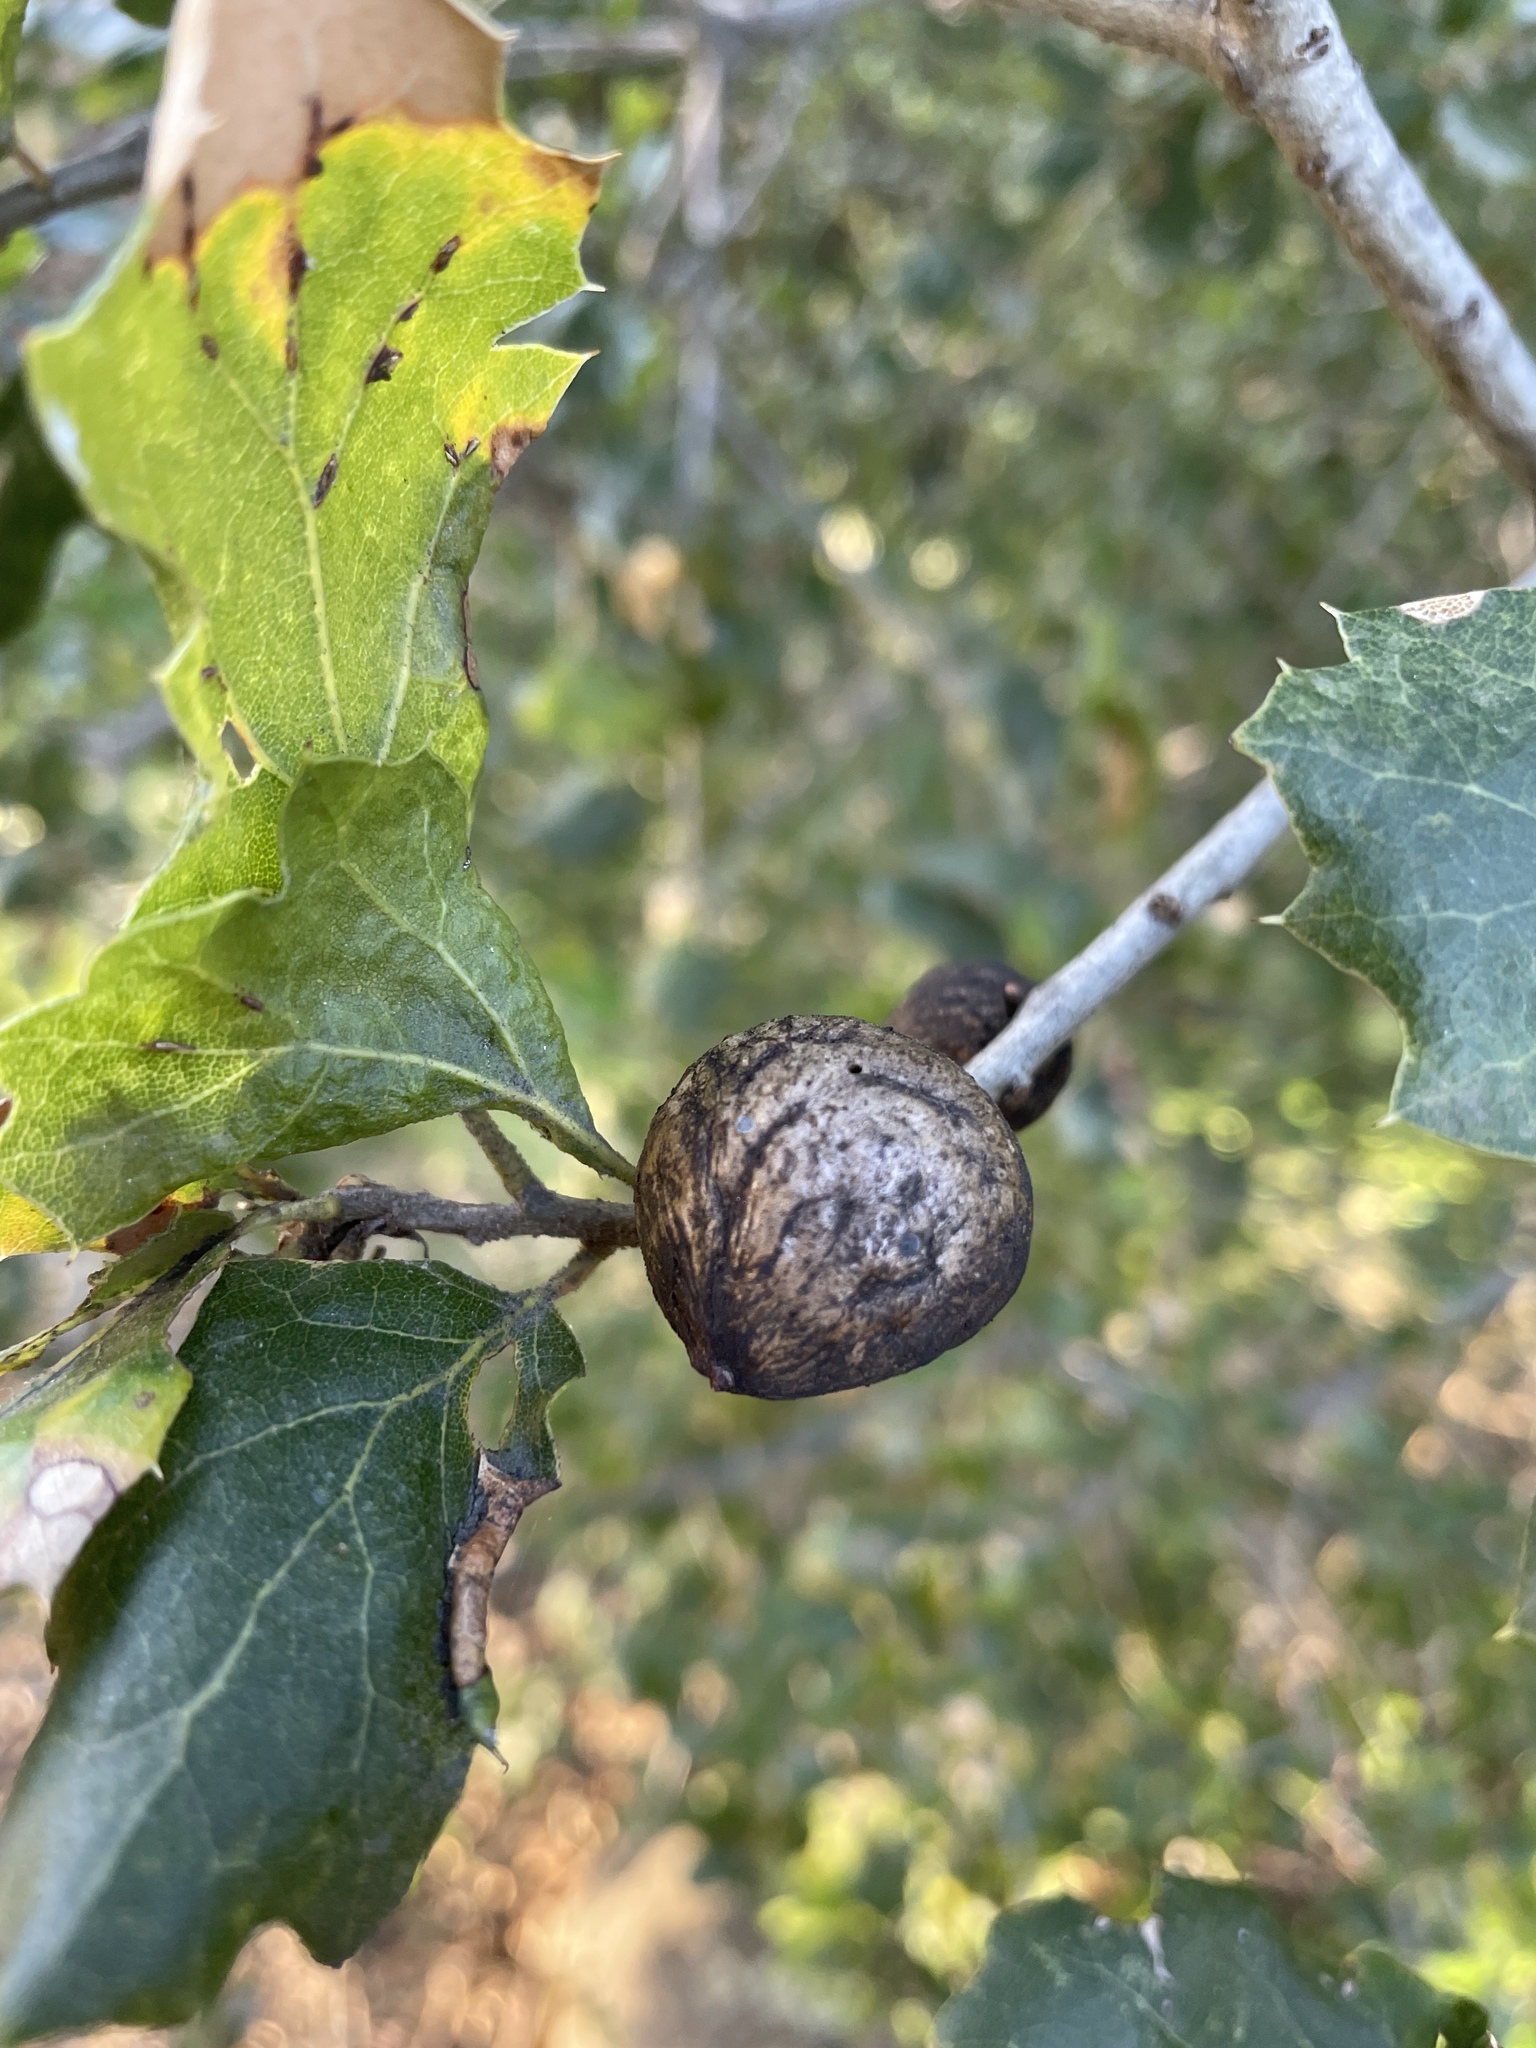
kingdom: Animalia
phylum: Arthropoda
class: Insecta
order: Hymenoptera
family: Cynipidae
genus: Amphibolips
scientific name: Amphibolips quercuspomiformis
